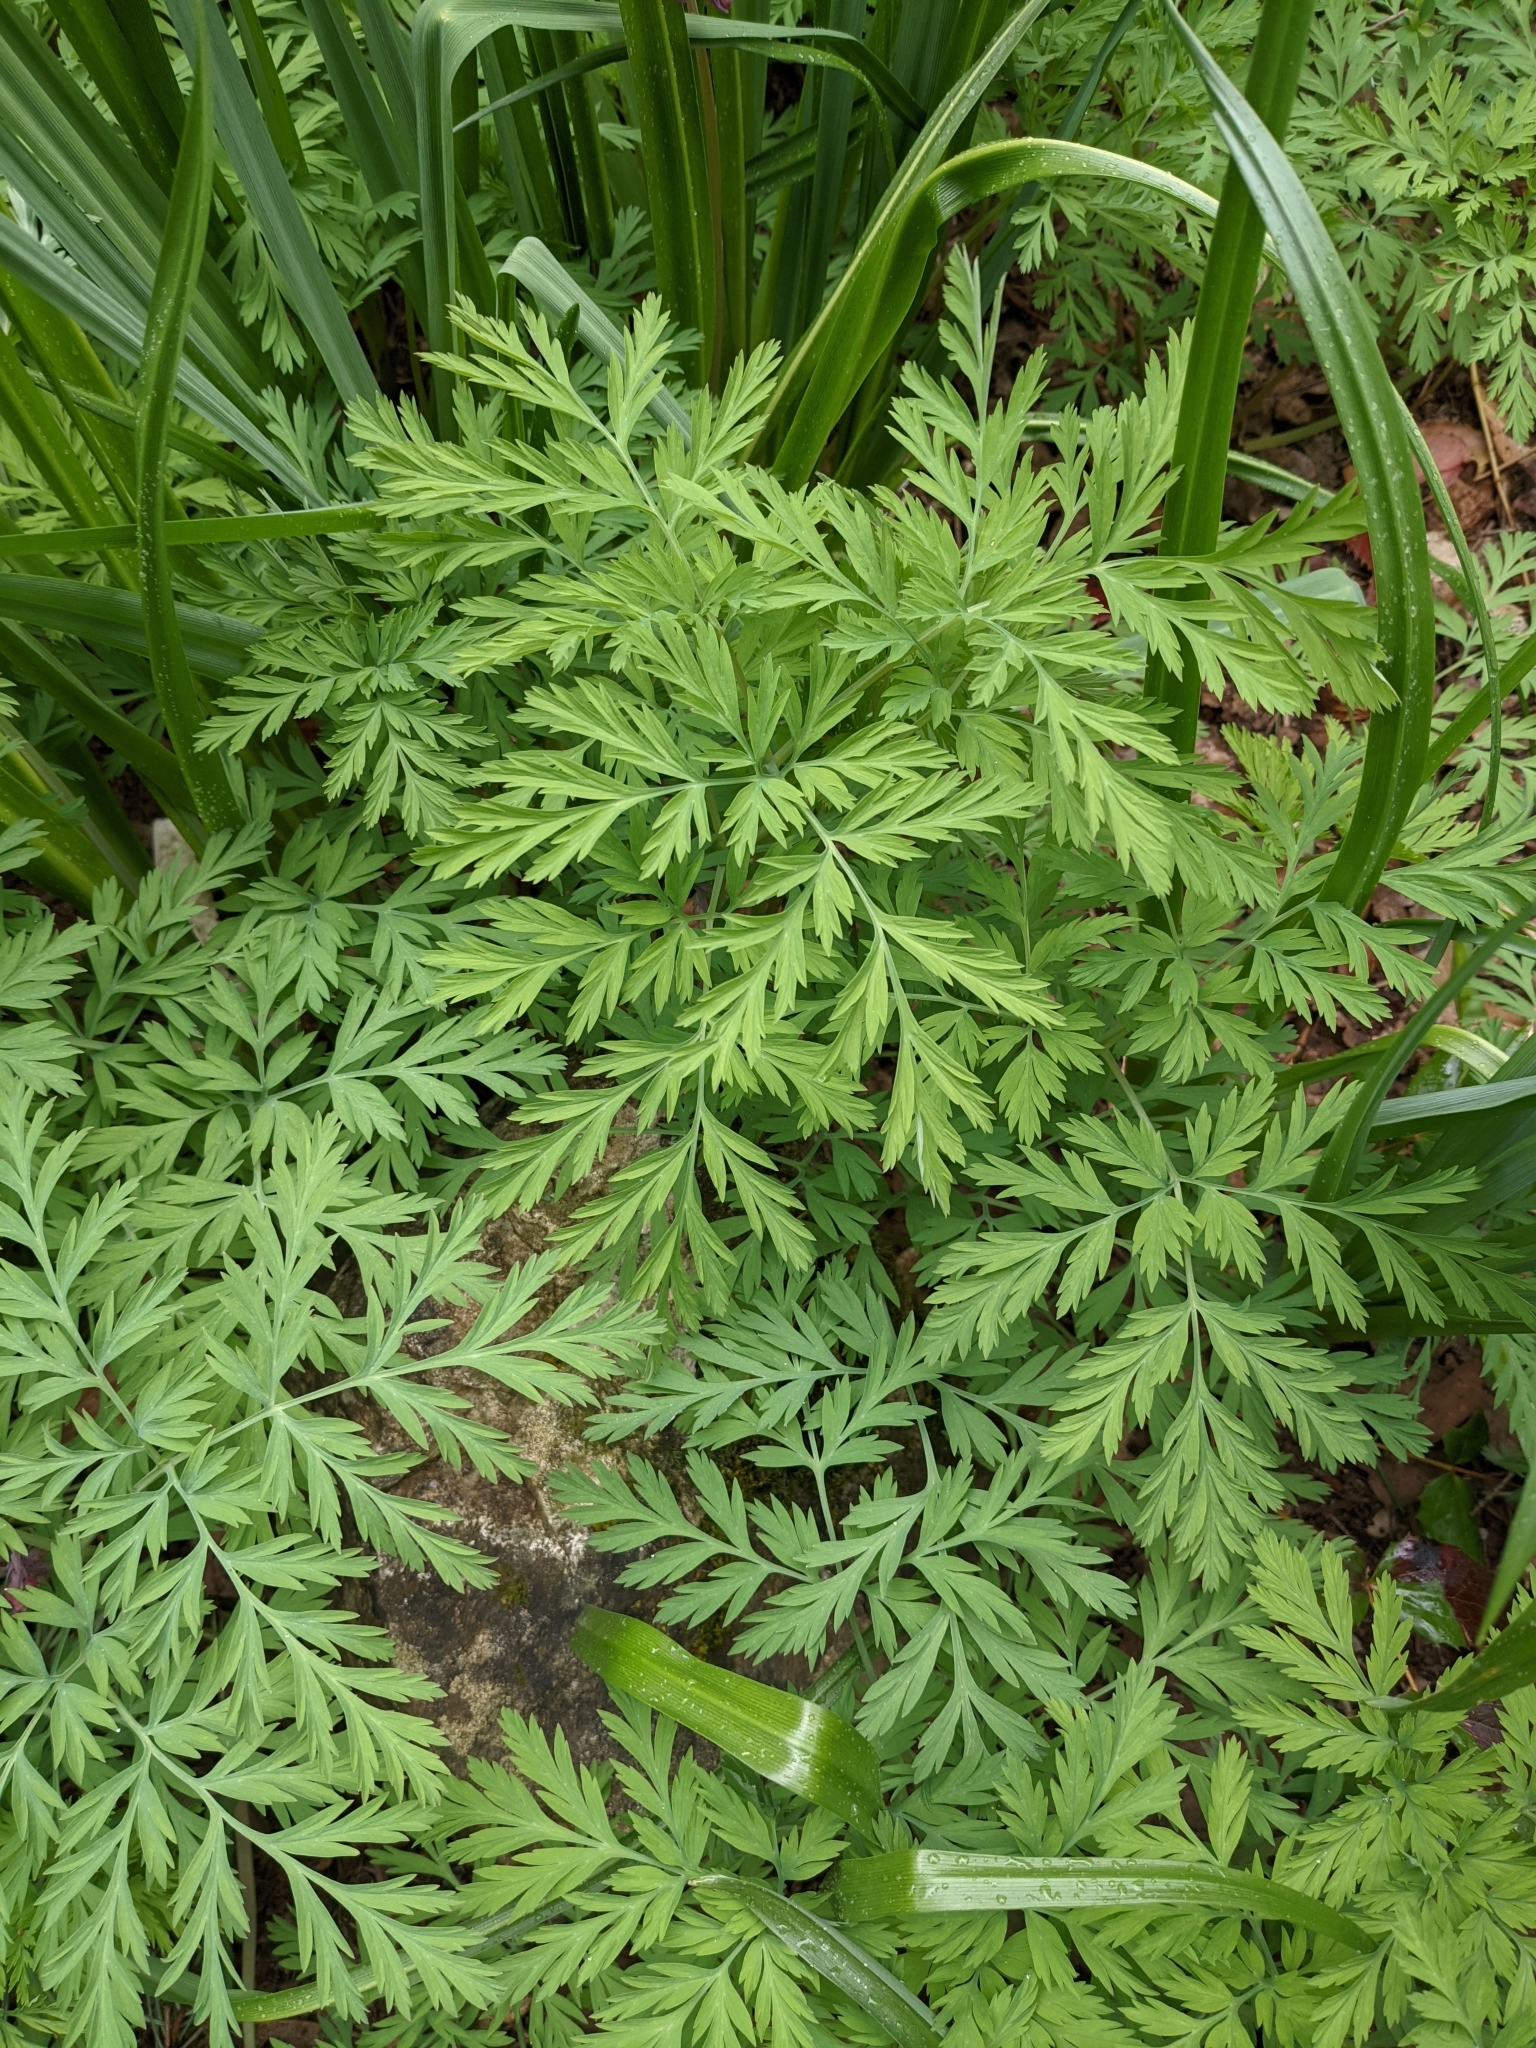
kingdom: Plantae
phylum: Tracheophyta
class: Magnoliopsida
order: Ranunculales
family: Papaveraceae
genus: Dicentra
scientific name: Dicentra formosa
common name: Bleeding-heart
